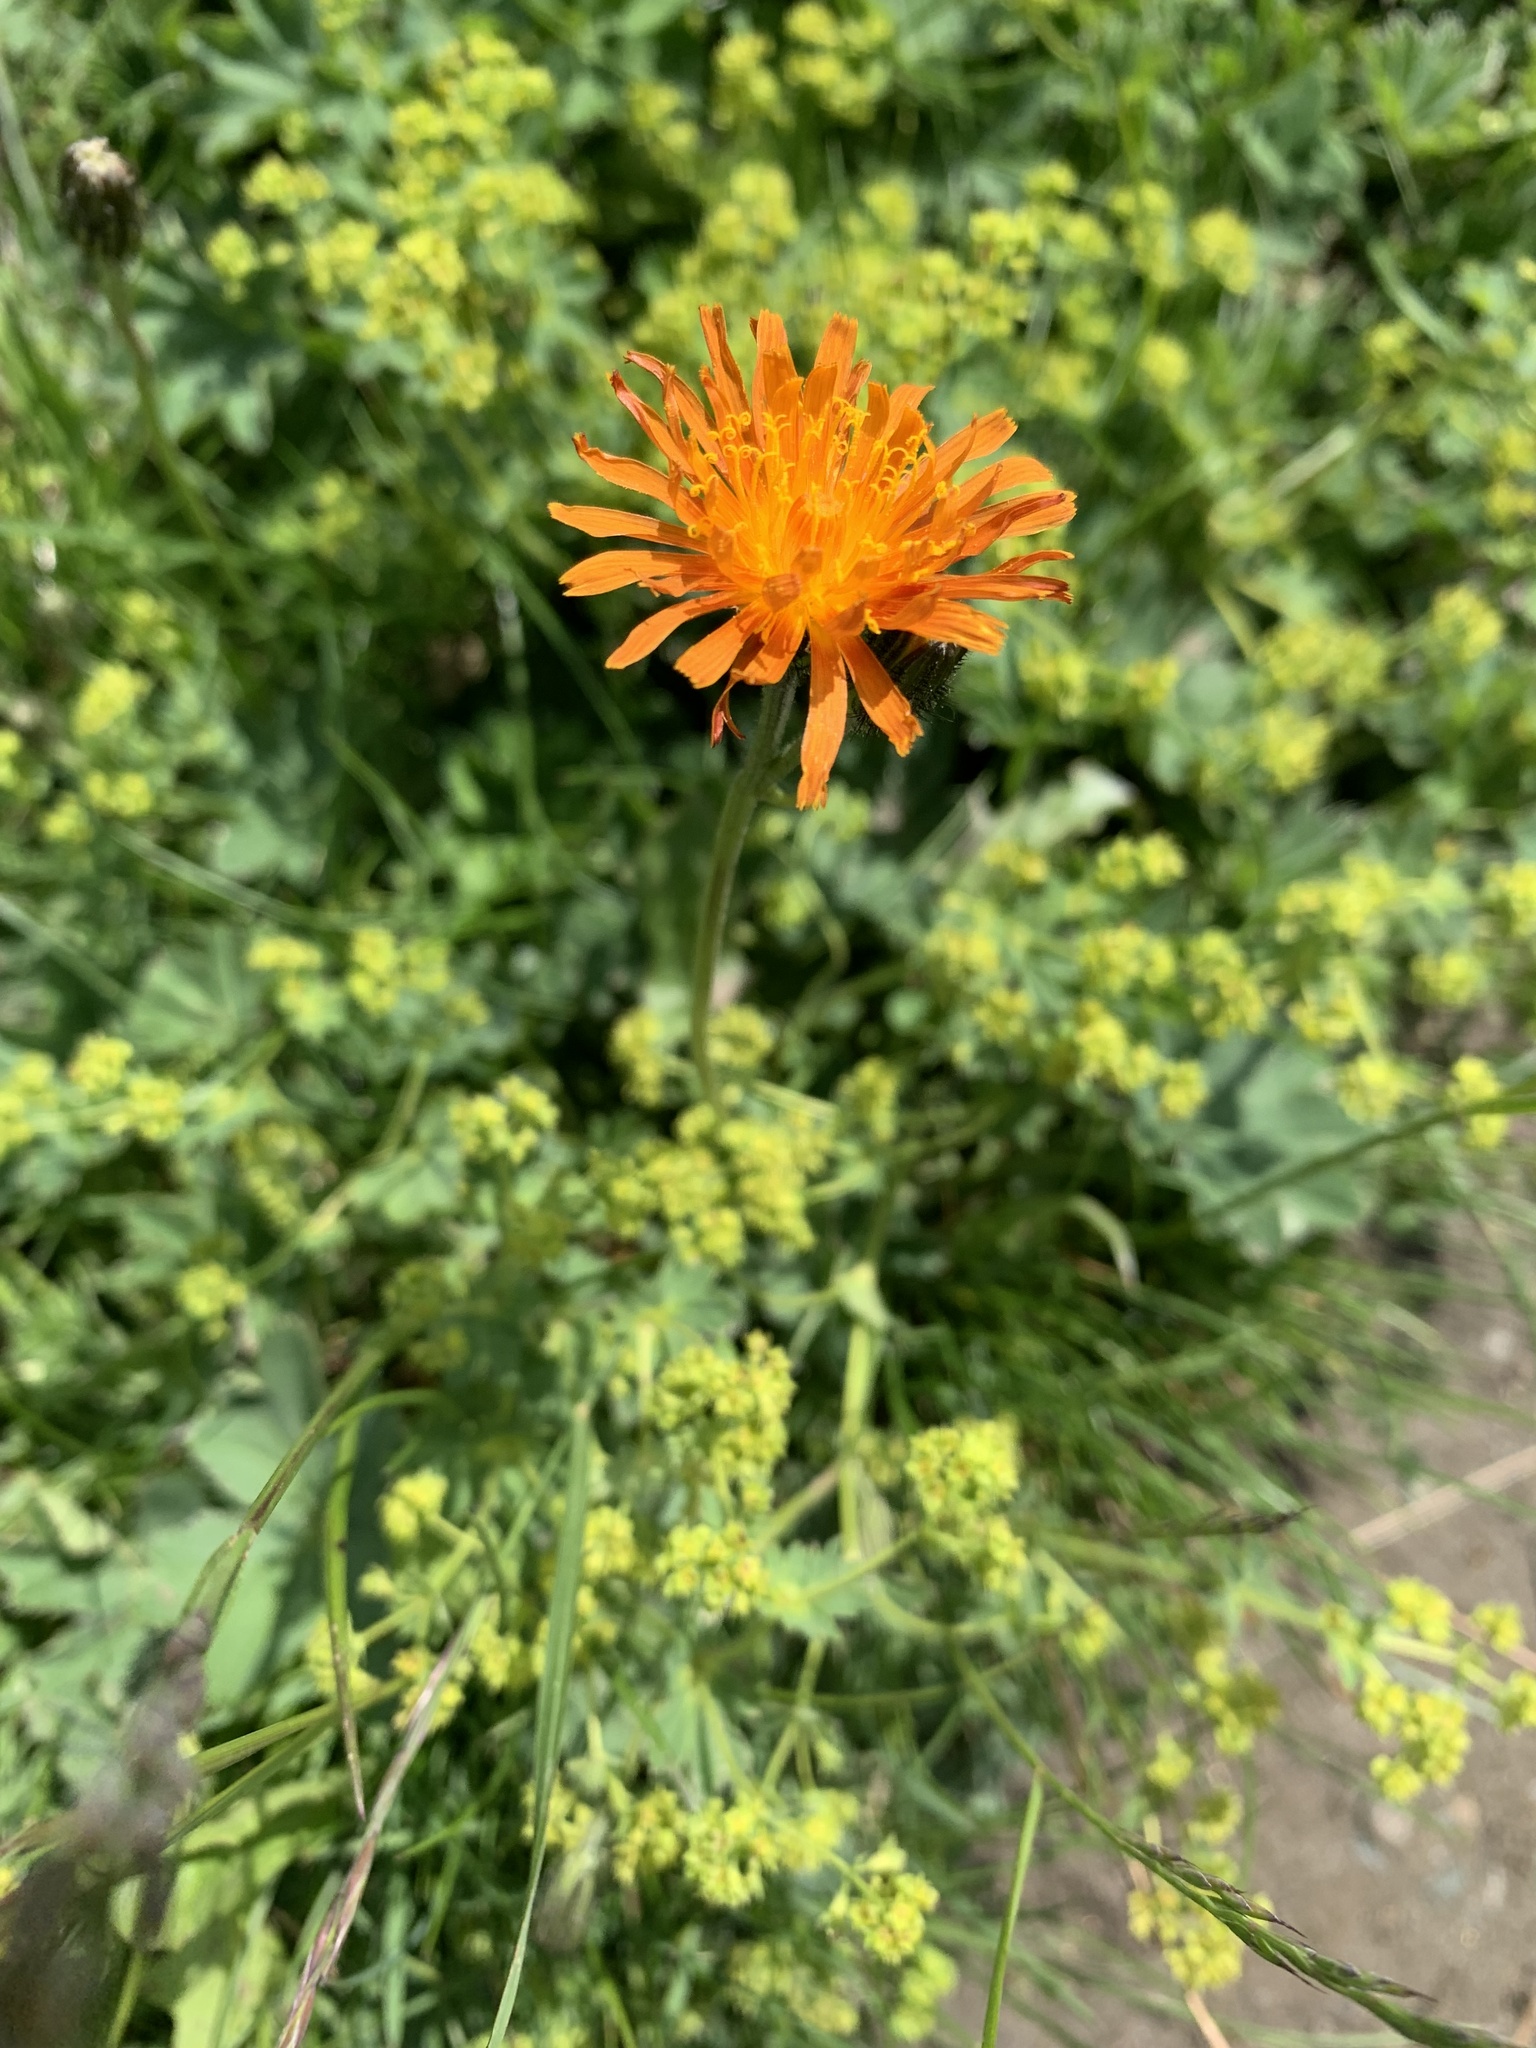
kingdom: Plantae
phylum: Tracheophyta
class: Magnoliopsida
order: Asterales
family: Asteraceae
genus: Crepis
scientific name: Crepis aurea
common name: Golden hawk's-beard
